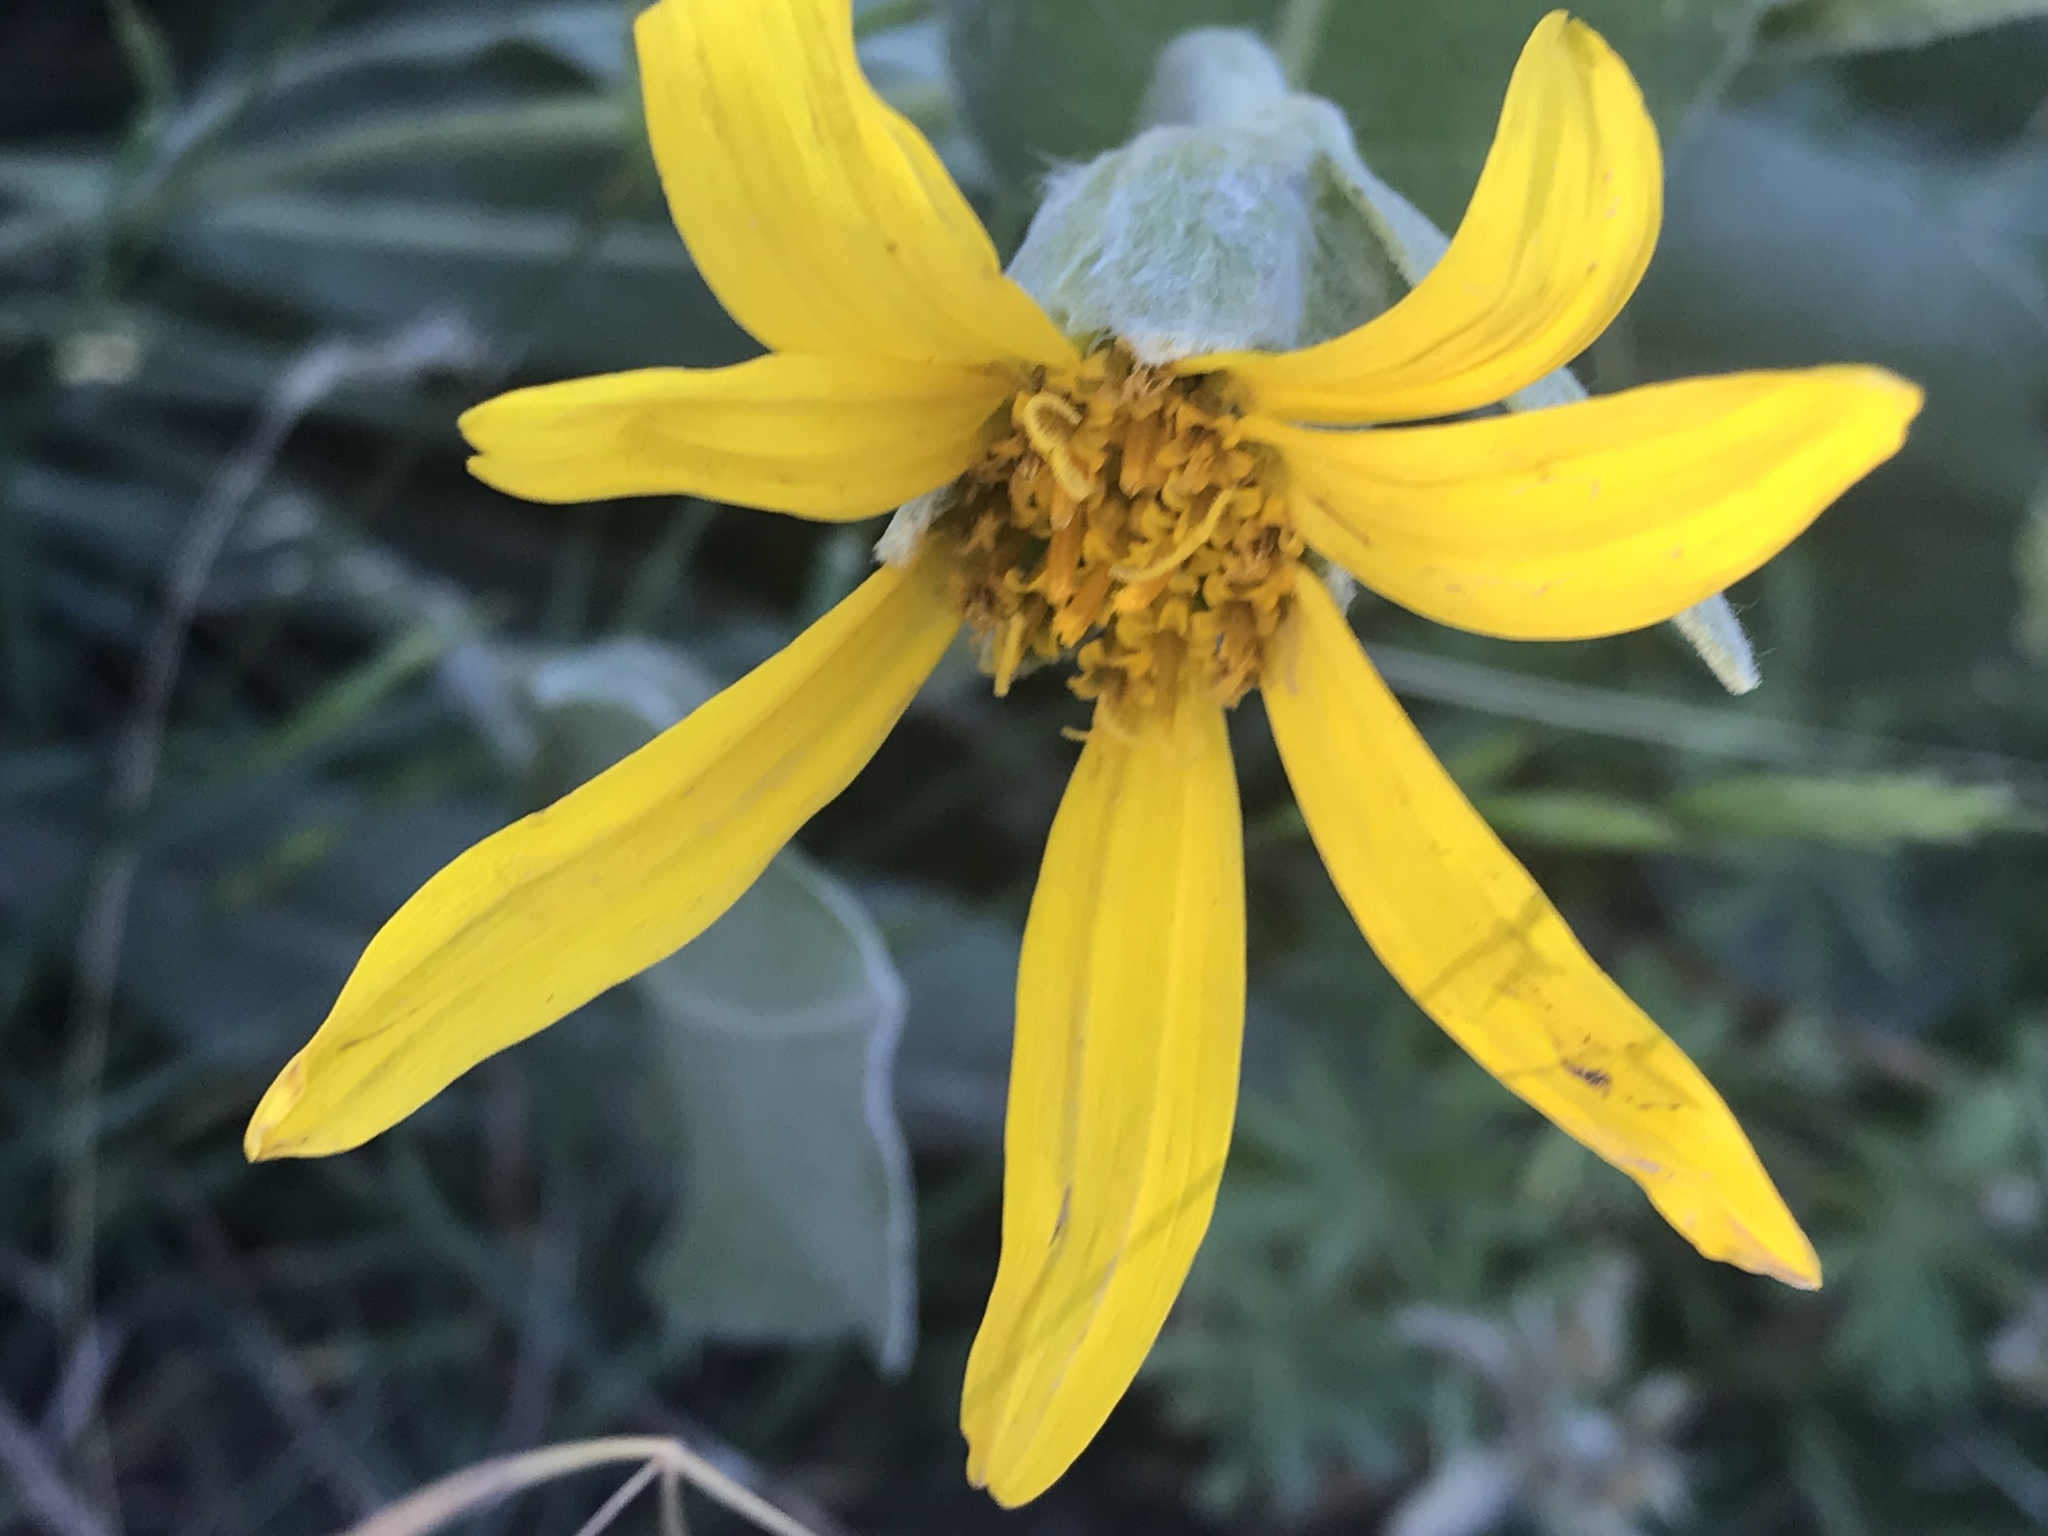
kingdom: Plantae
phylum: Tracheophyta
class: Magnoliopsida
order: Asterales
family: Asteraceae
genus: Wyethia
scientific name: Wyethia mollis
